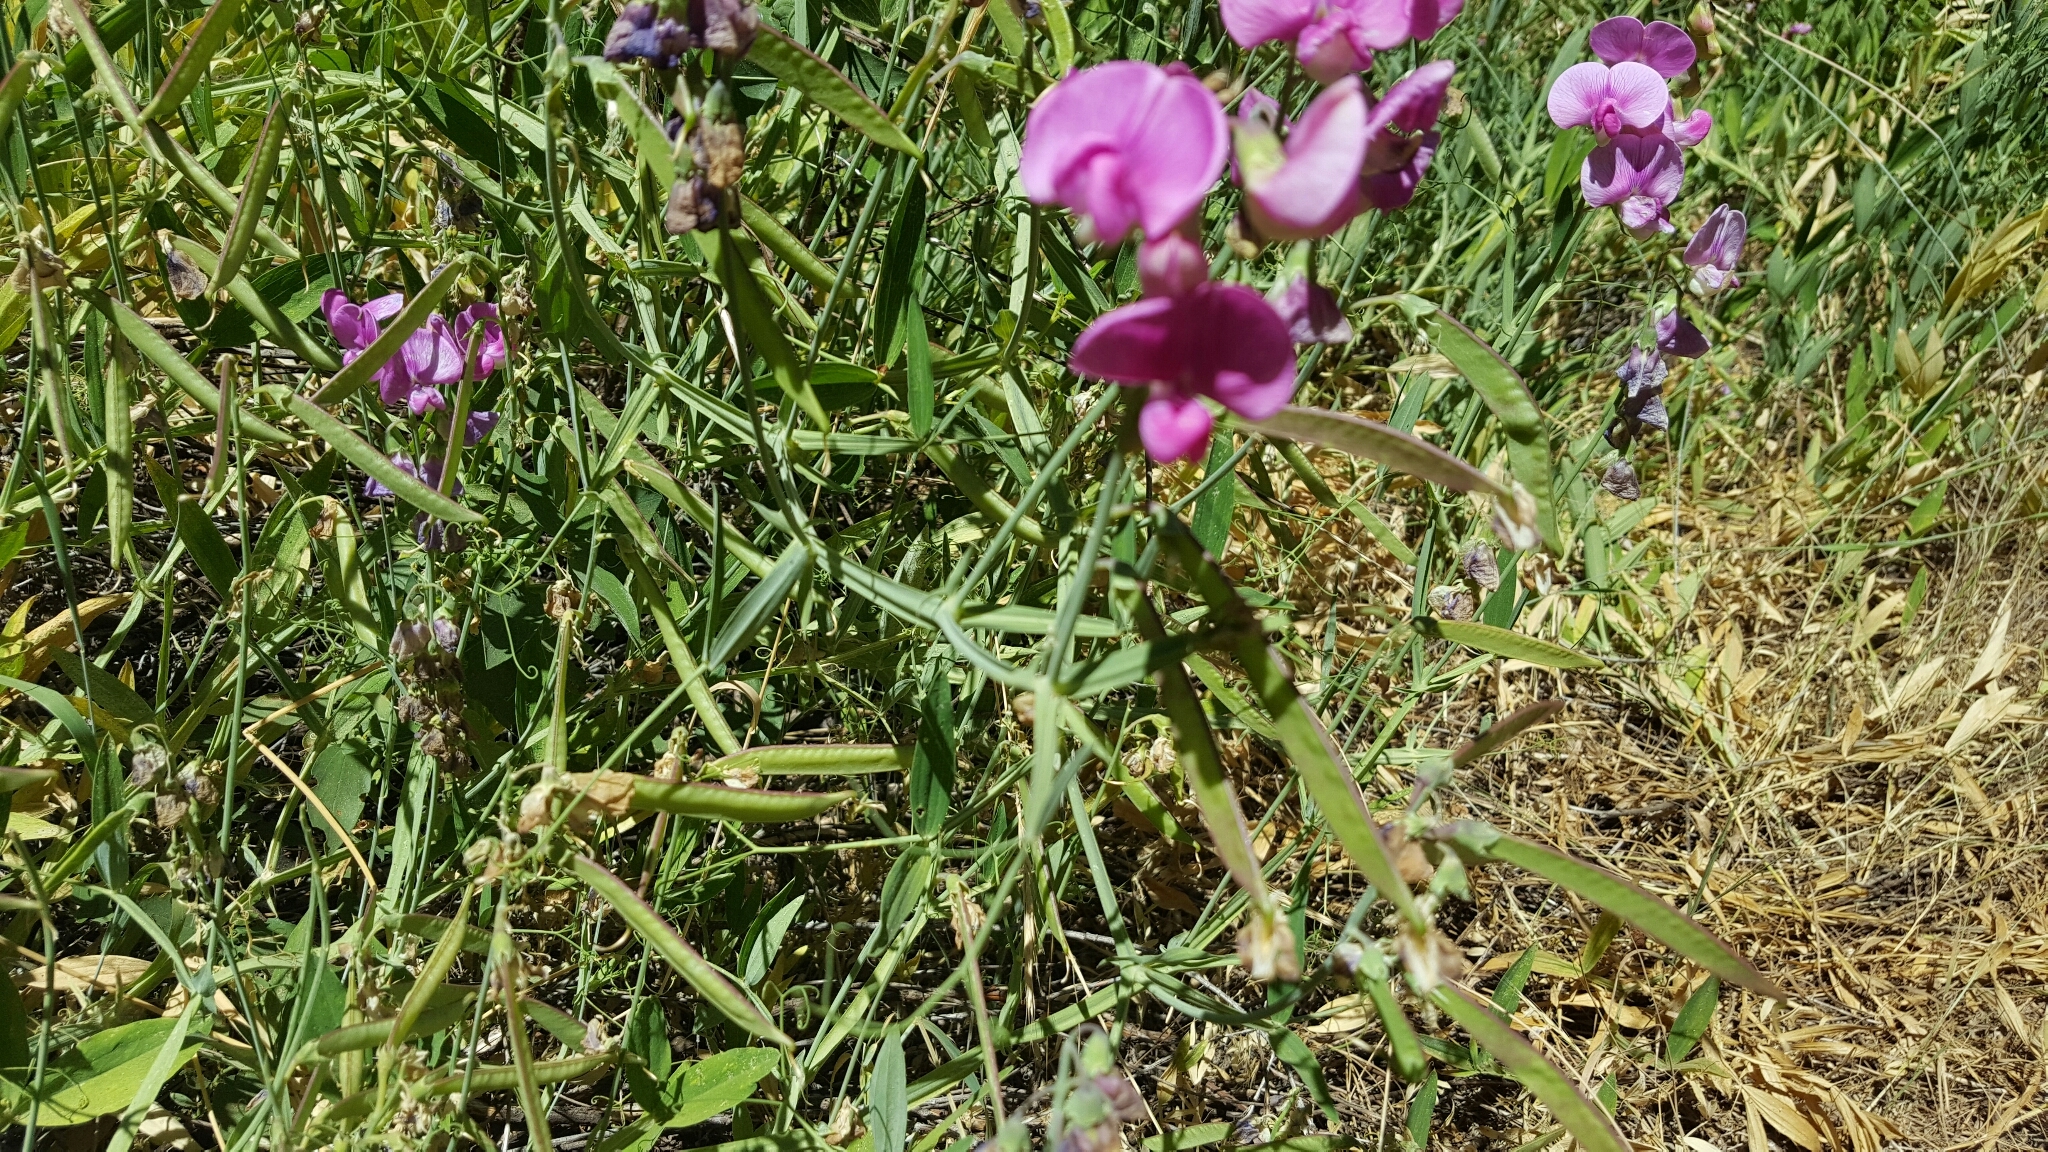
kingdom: Plantae
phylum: Tracheophyta
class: Magnoliopsida
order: Fabales
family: Fabaceae
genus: Lathyrus
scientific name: Lathyrus latifolius
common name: Perennial pea
